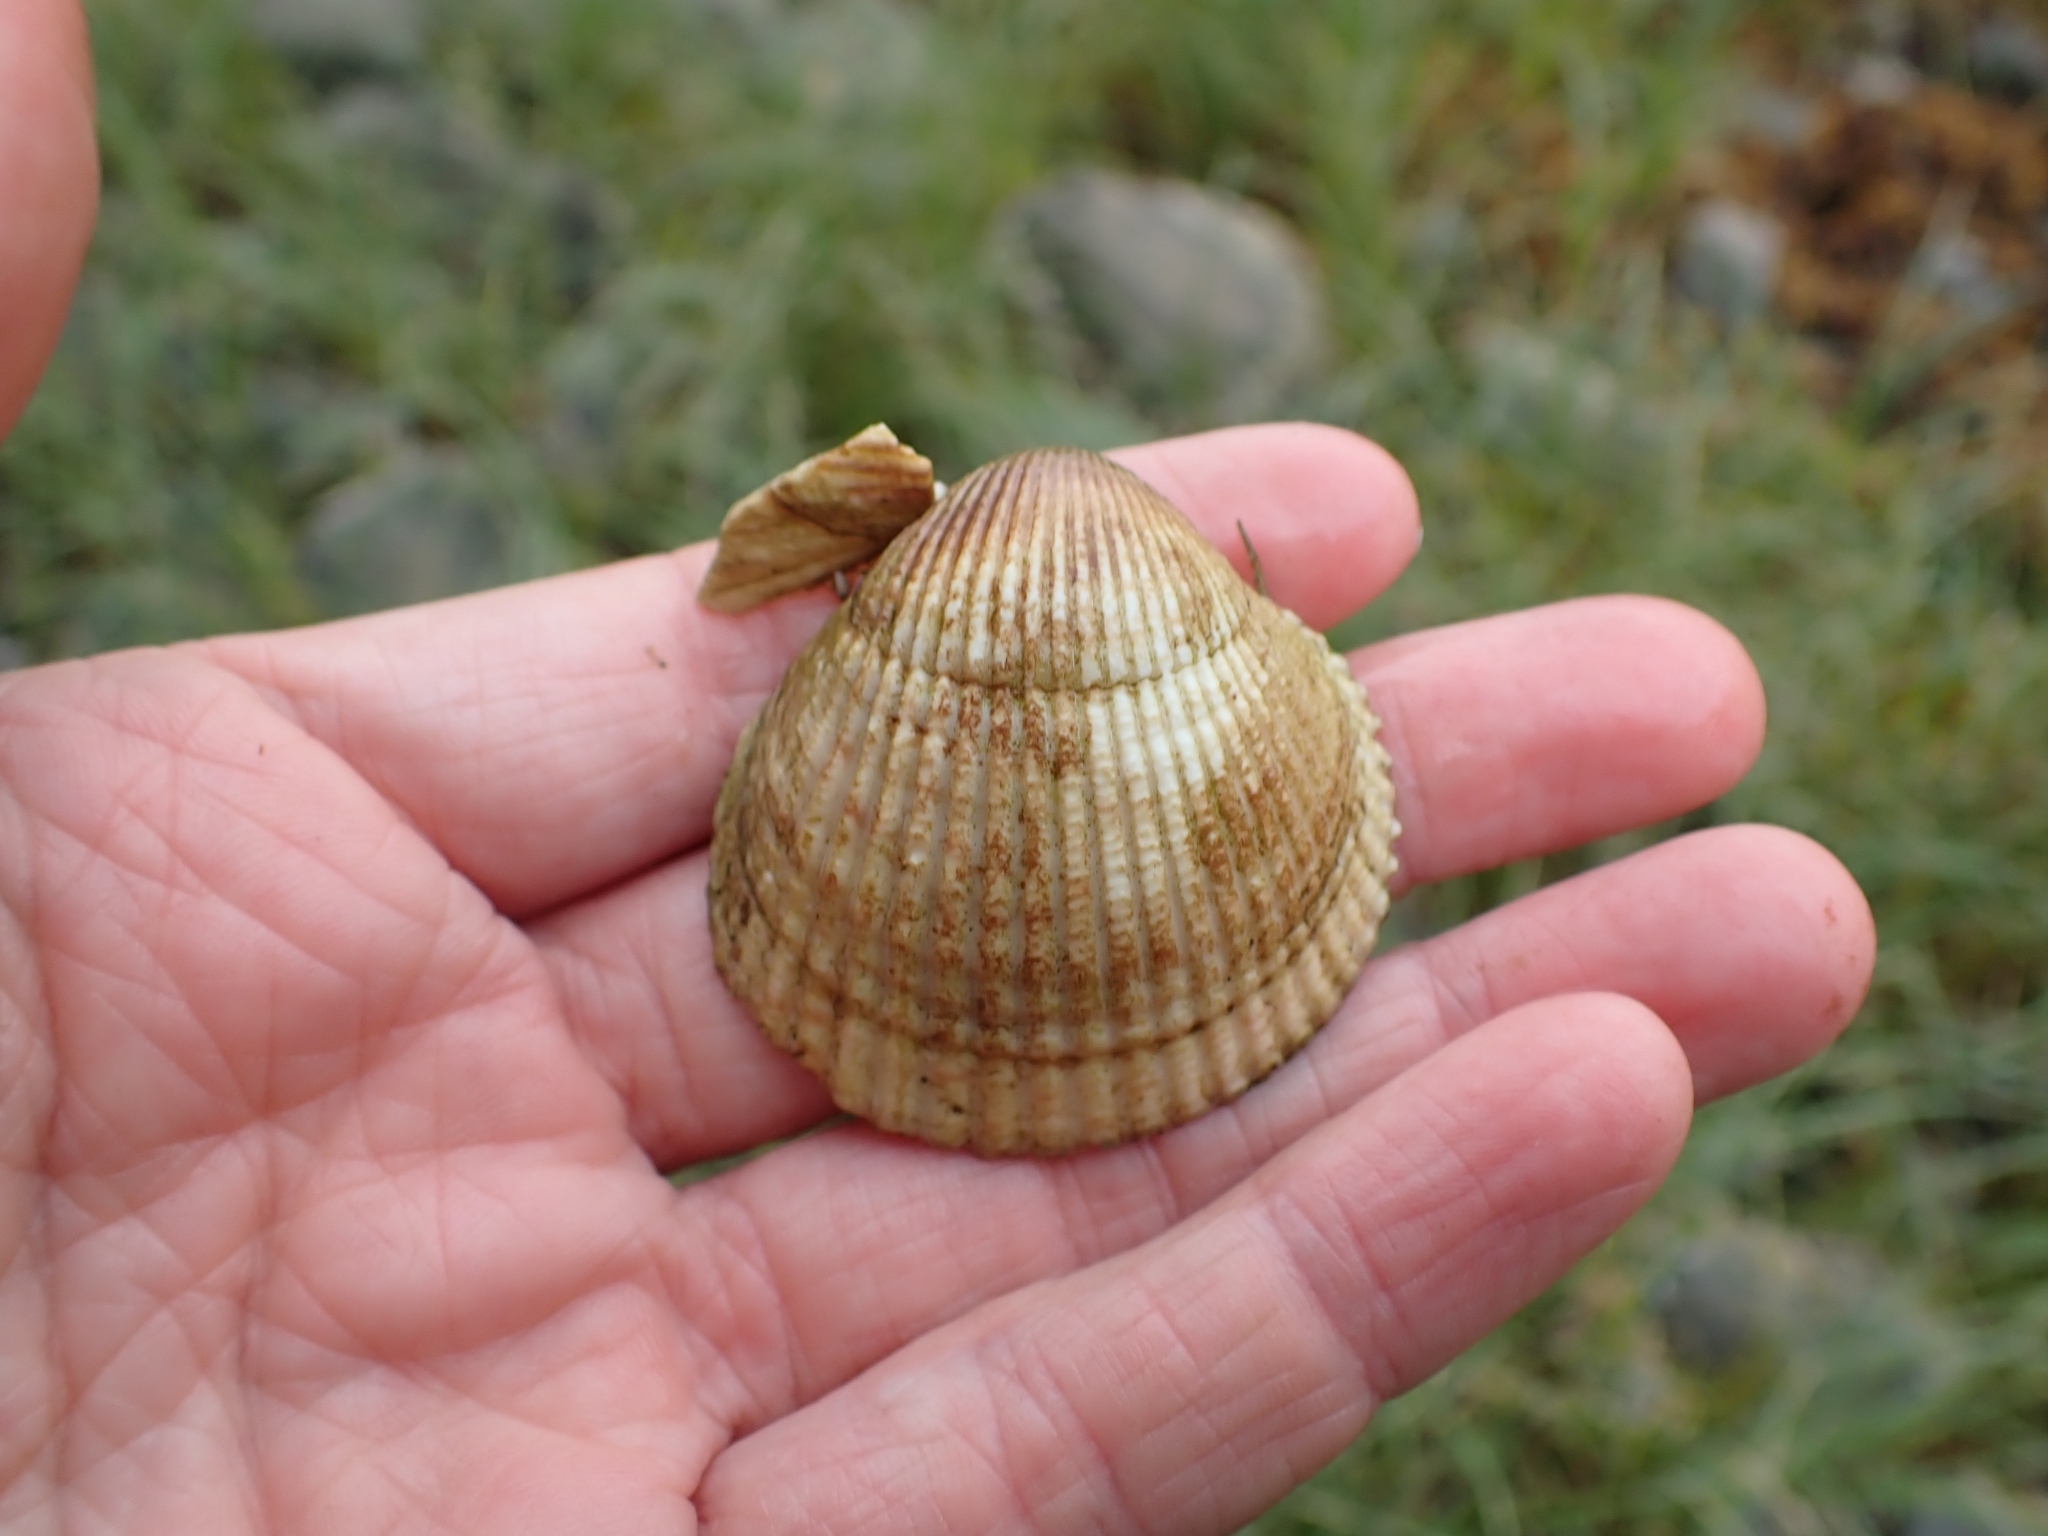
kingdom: Animalia
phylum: Mollusca
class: Bivalvia
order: Cardiida
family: Cardiidae
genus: Clinocardium
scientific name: Clinocardium nuttallii
